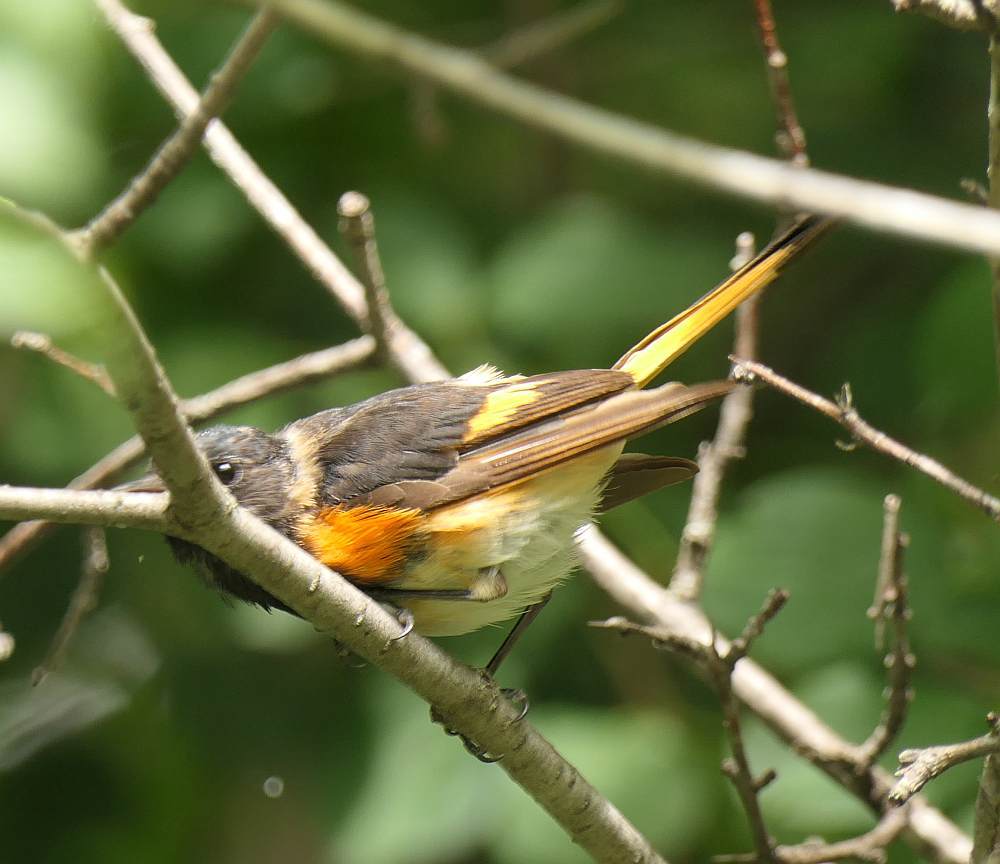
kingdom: Animalia
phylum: Chordata
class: Aves
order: Passeriformes
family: Parulidae
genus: Setophaga
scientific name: Setophaga ruticilla
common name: American redstart
